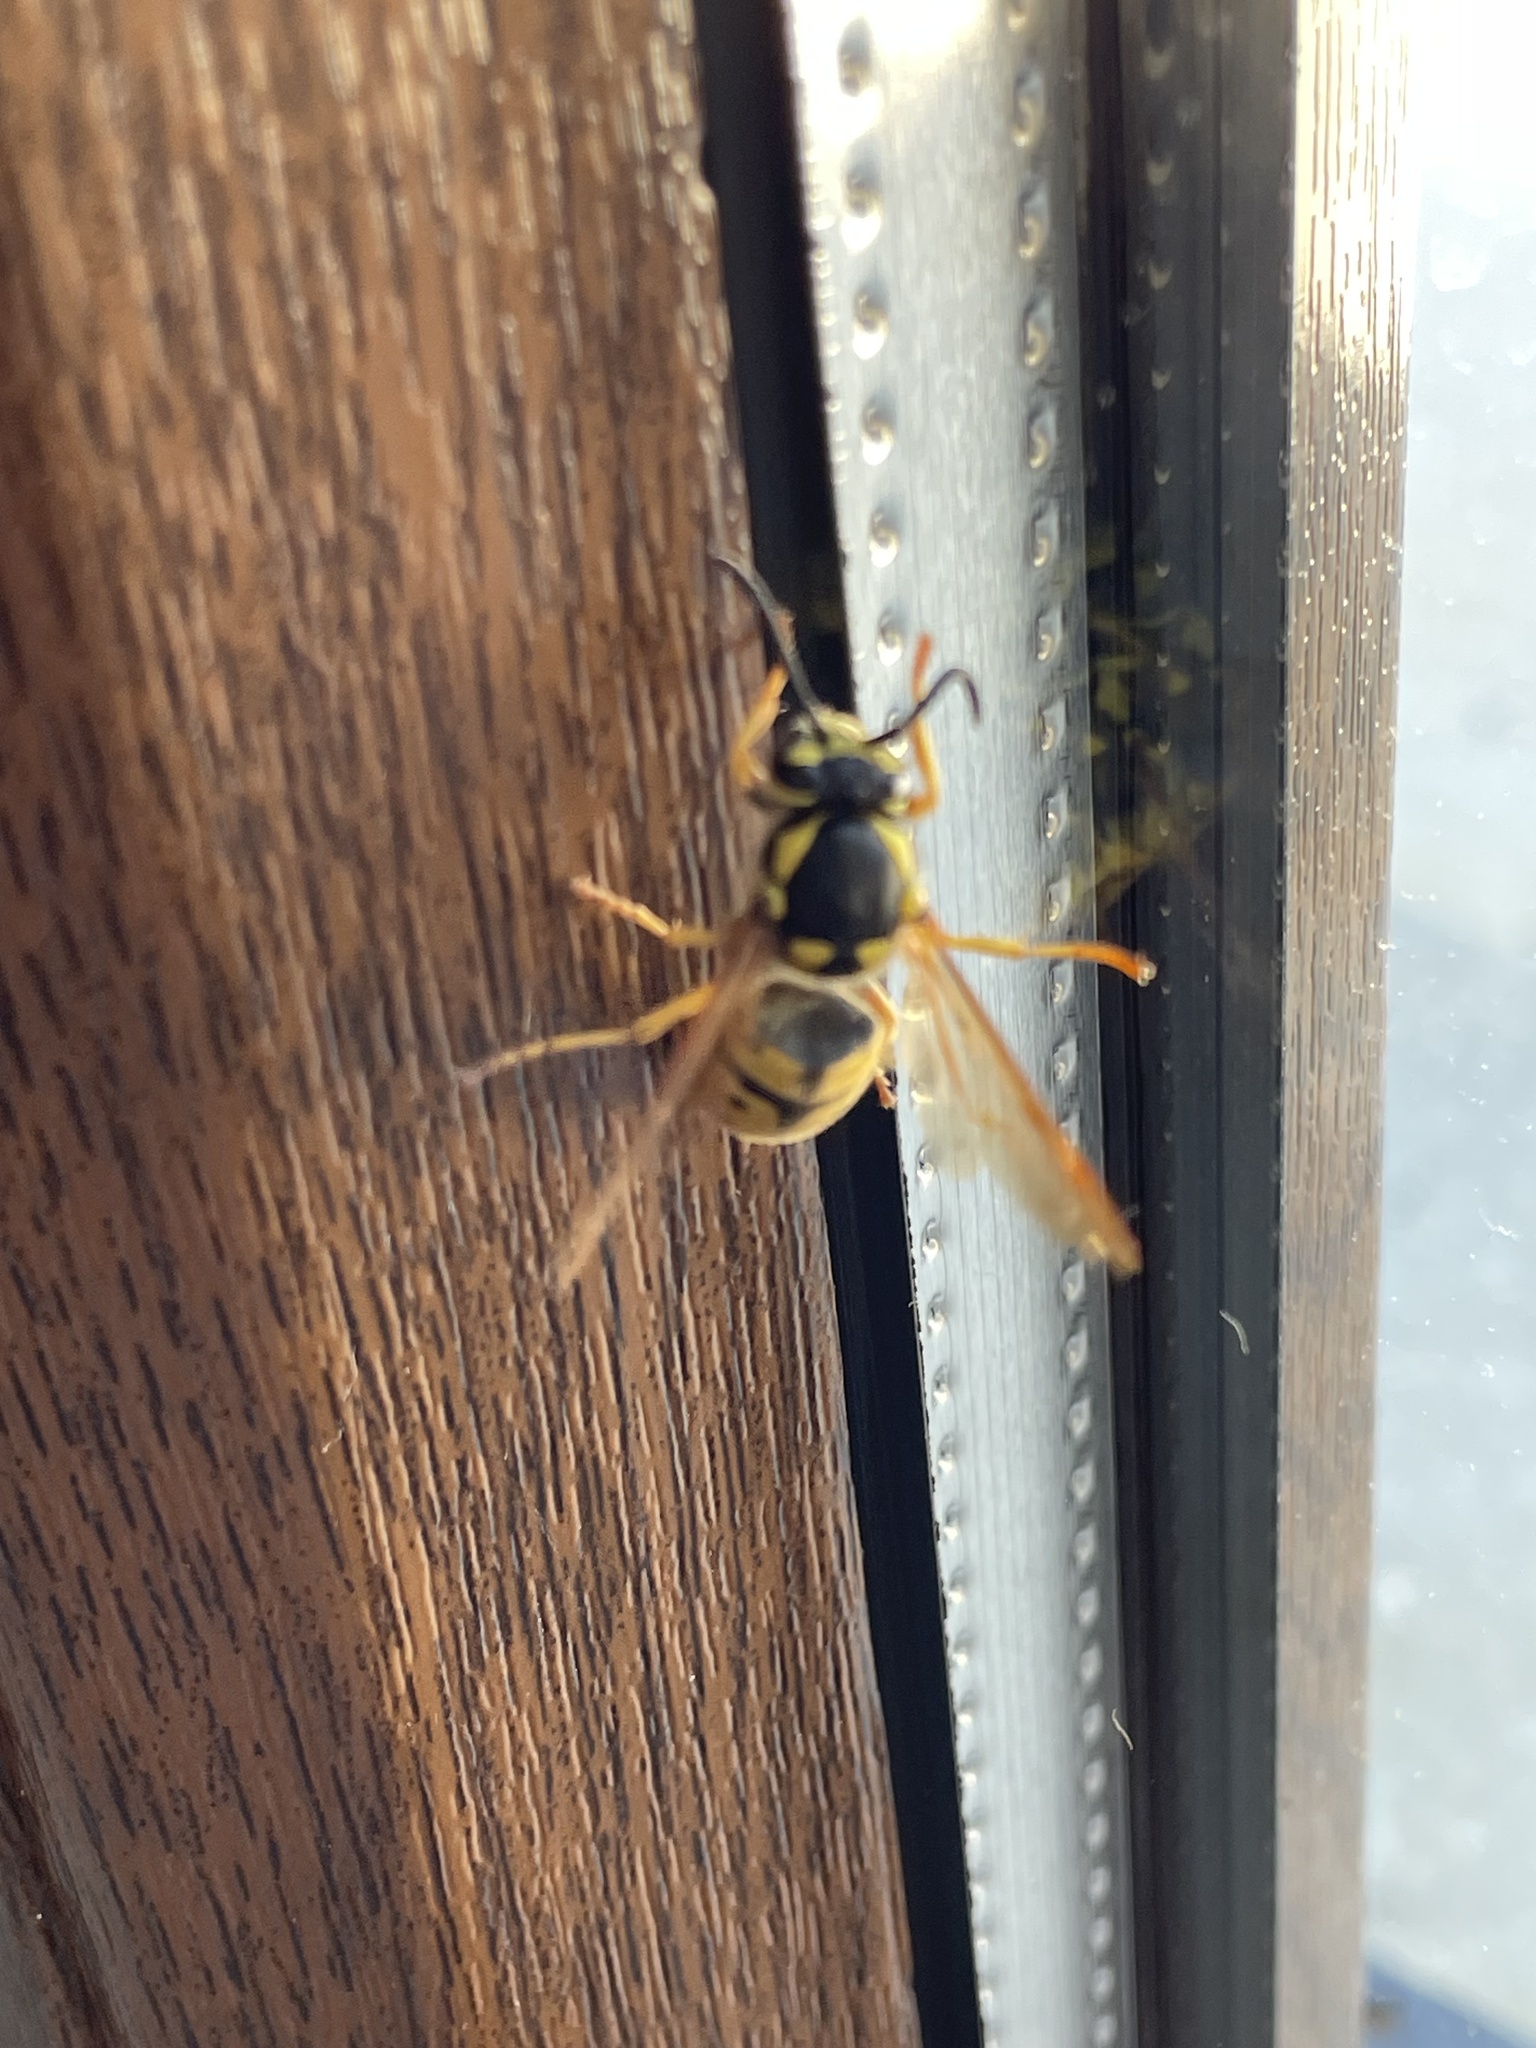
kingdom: Animalia
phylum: Arthropoda
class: Insecta
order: Hymenoptera
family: Vespidae
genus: Vespula
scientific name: Vespula germanica
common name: German wasp
